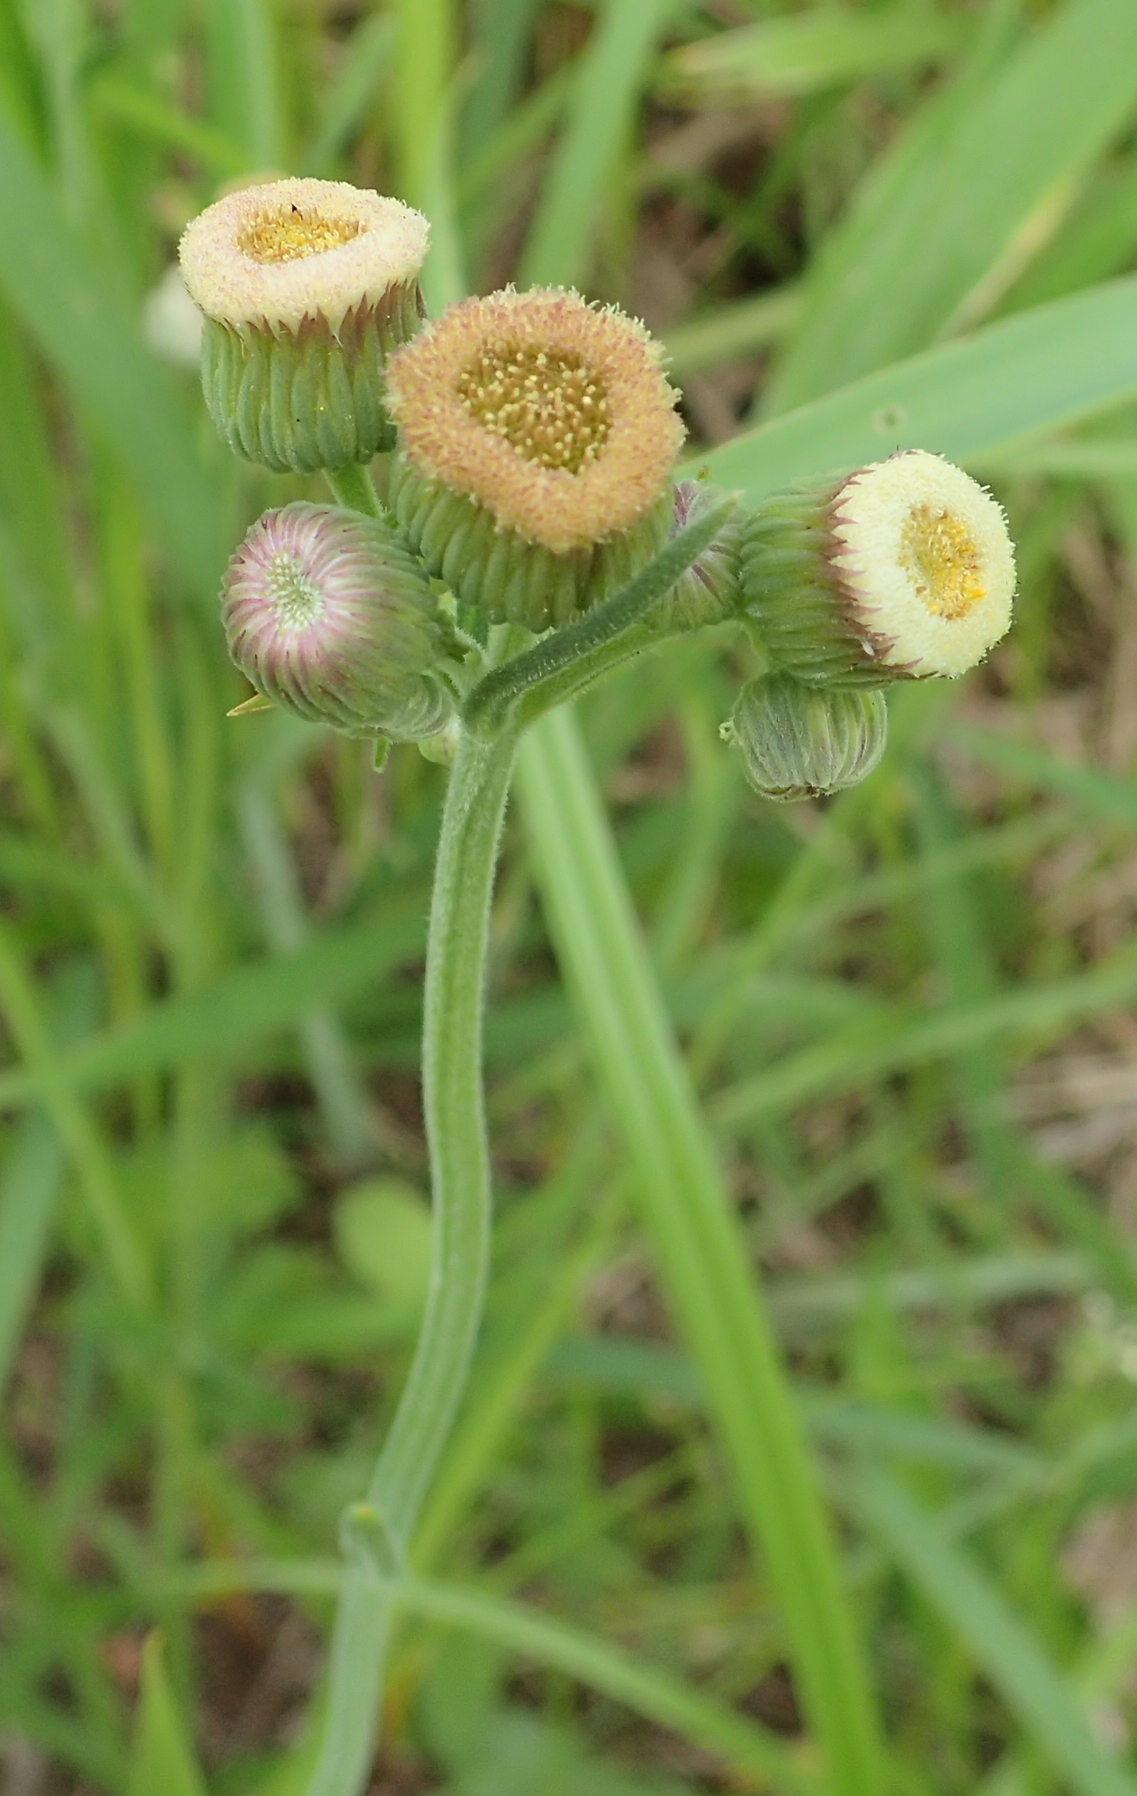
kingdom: Plantae
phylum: Tracheophyta
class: Magnoliopsida
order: Asterales
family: Asteraceae
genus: Erigeron
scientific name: Erigeron primulifolius
